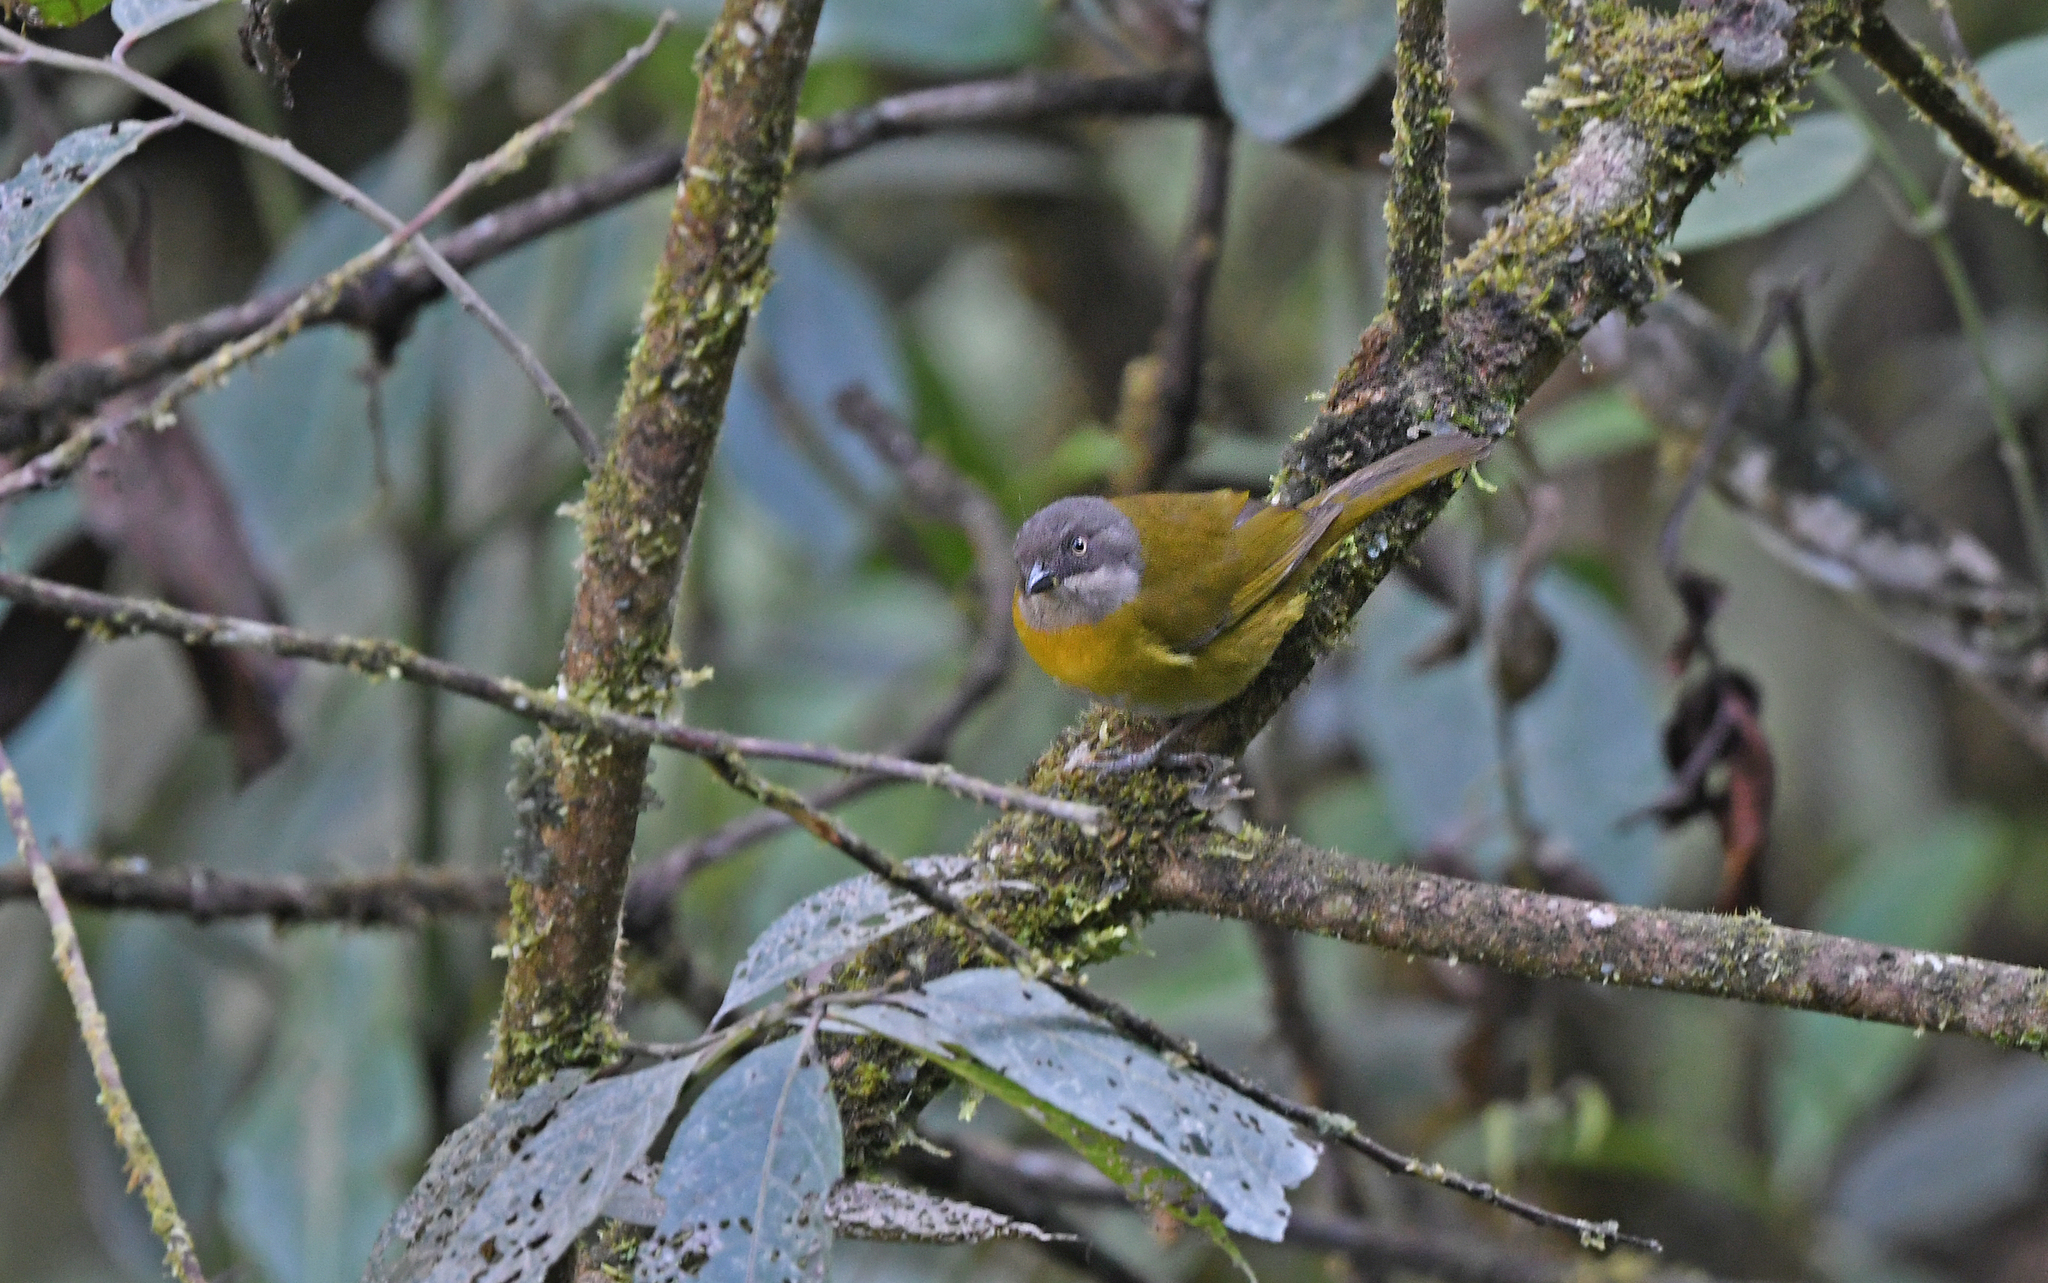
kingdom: Animalia
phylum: Chordata
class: Aves
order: Passeriformes
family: Passerellidae
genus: Chlorospingus
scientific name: Chlorospingus flavopectus
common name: Common chlorospingus
